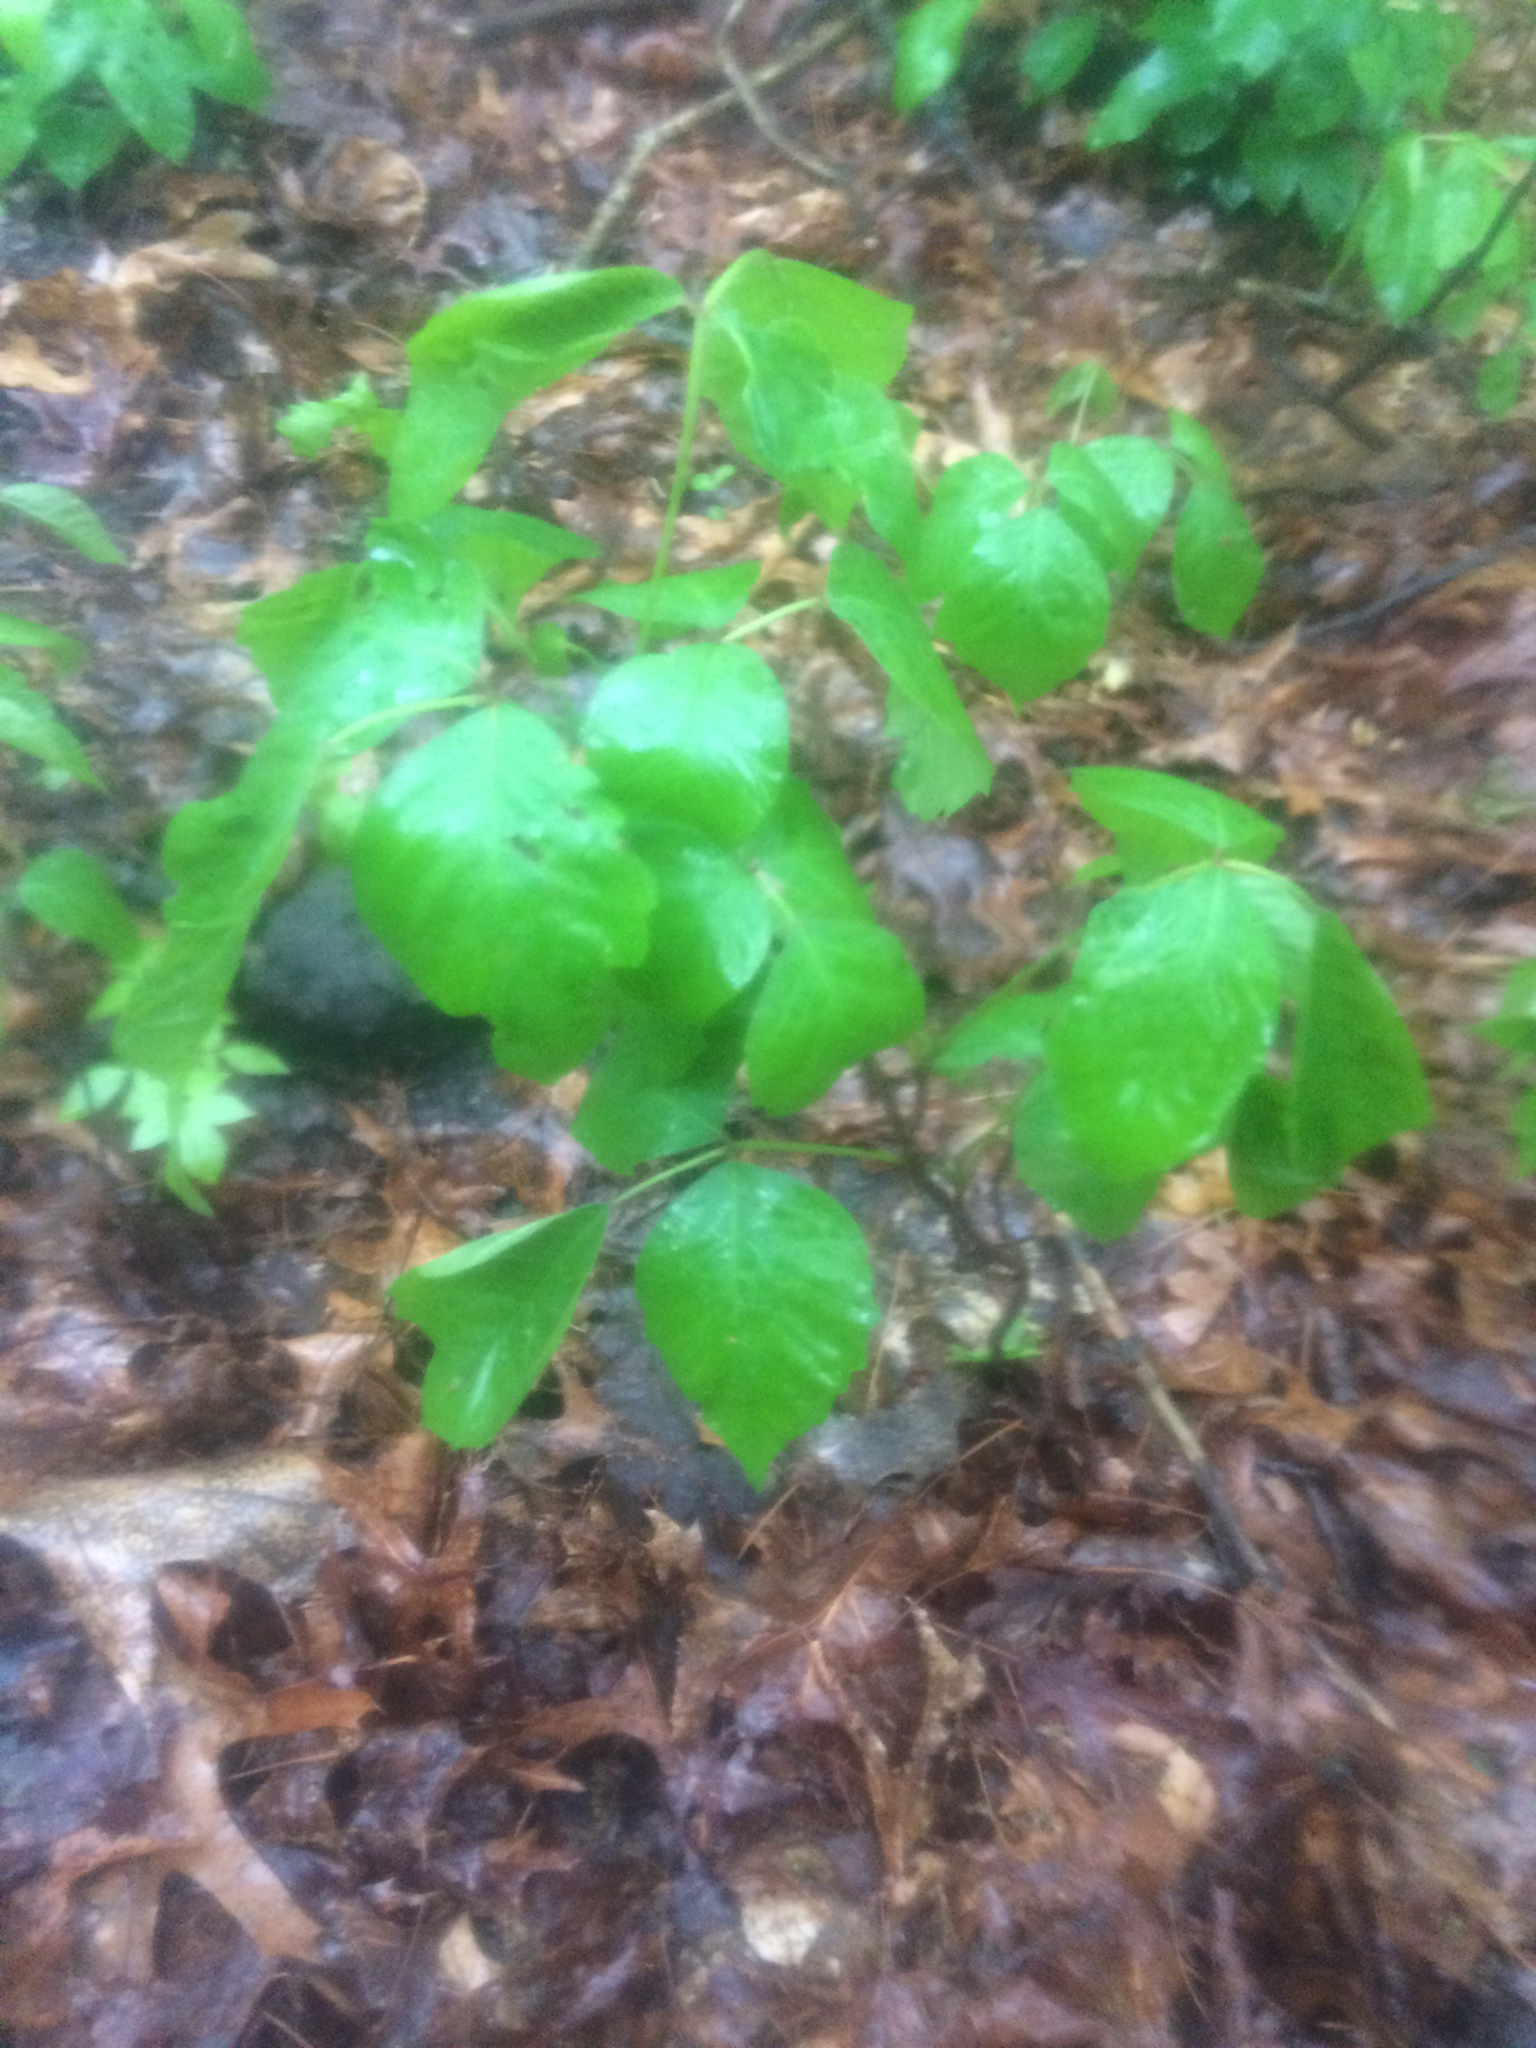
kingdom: Plantae
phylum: Tracheophyta
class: Magnoliopsida
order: Sapindales
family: Anacardiaceae
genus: Toxicodendron
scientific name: Toxicodendron radicans
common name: Poison ivy
